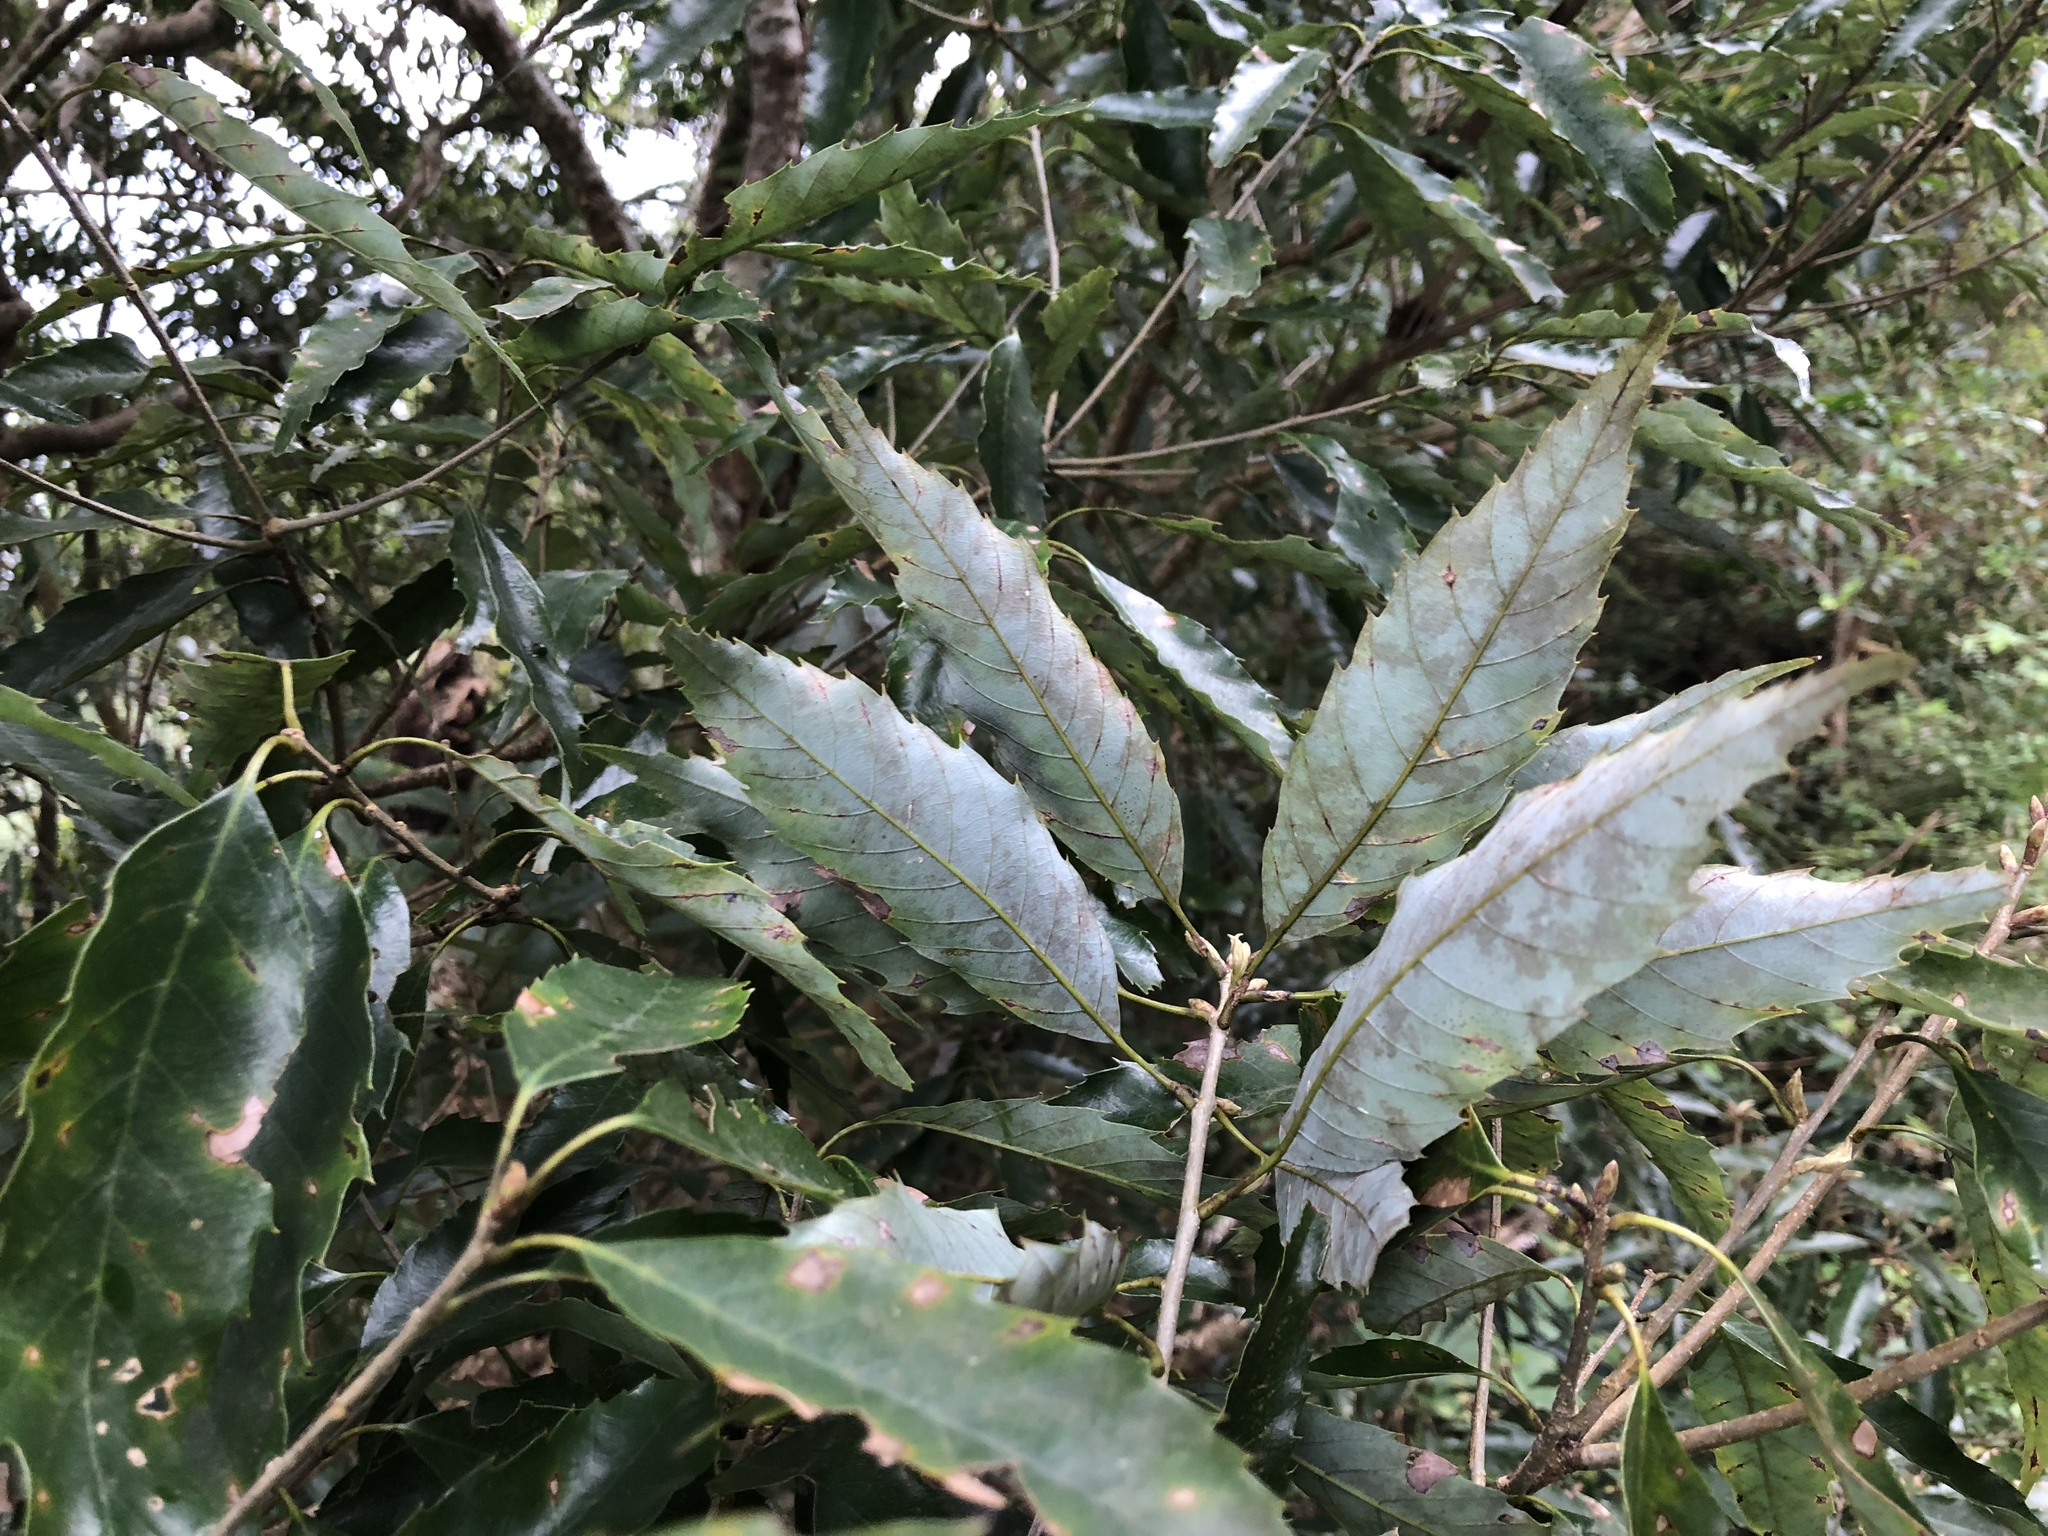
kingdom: Plantae
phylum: Tracheophyta
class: Magnoliopsida
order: Fagales
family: Fagaceae
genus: Quercus
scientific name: Quercus stenophylloides
